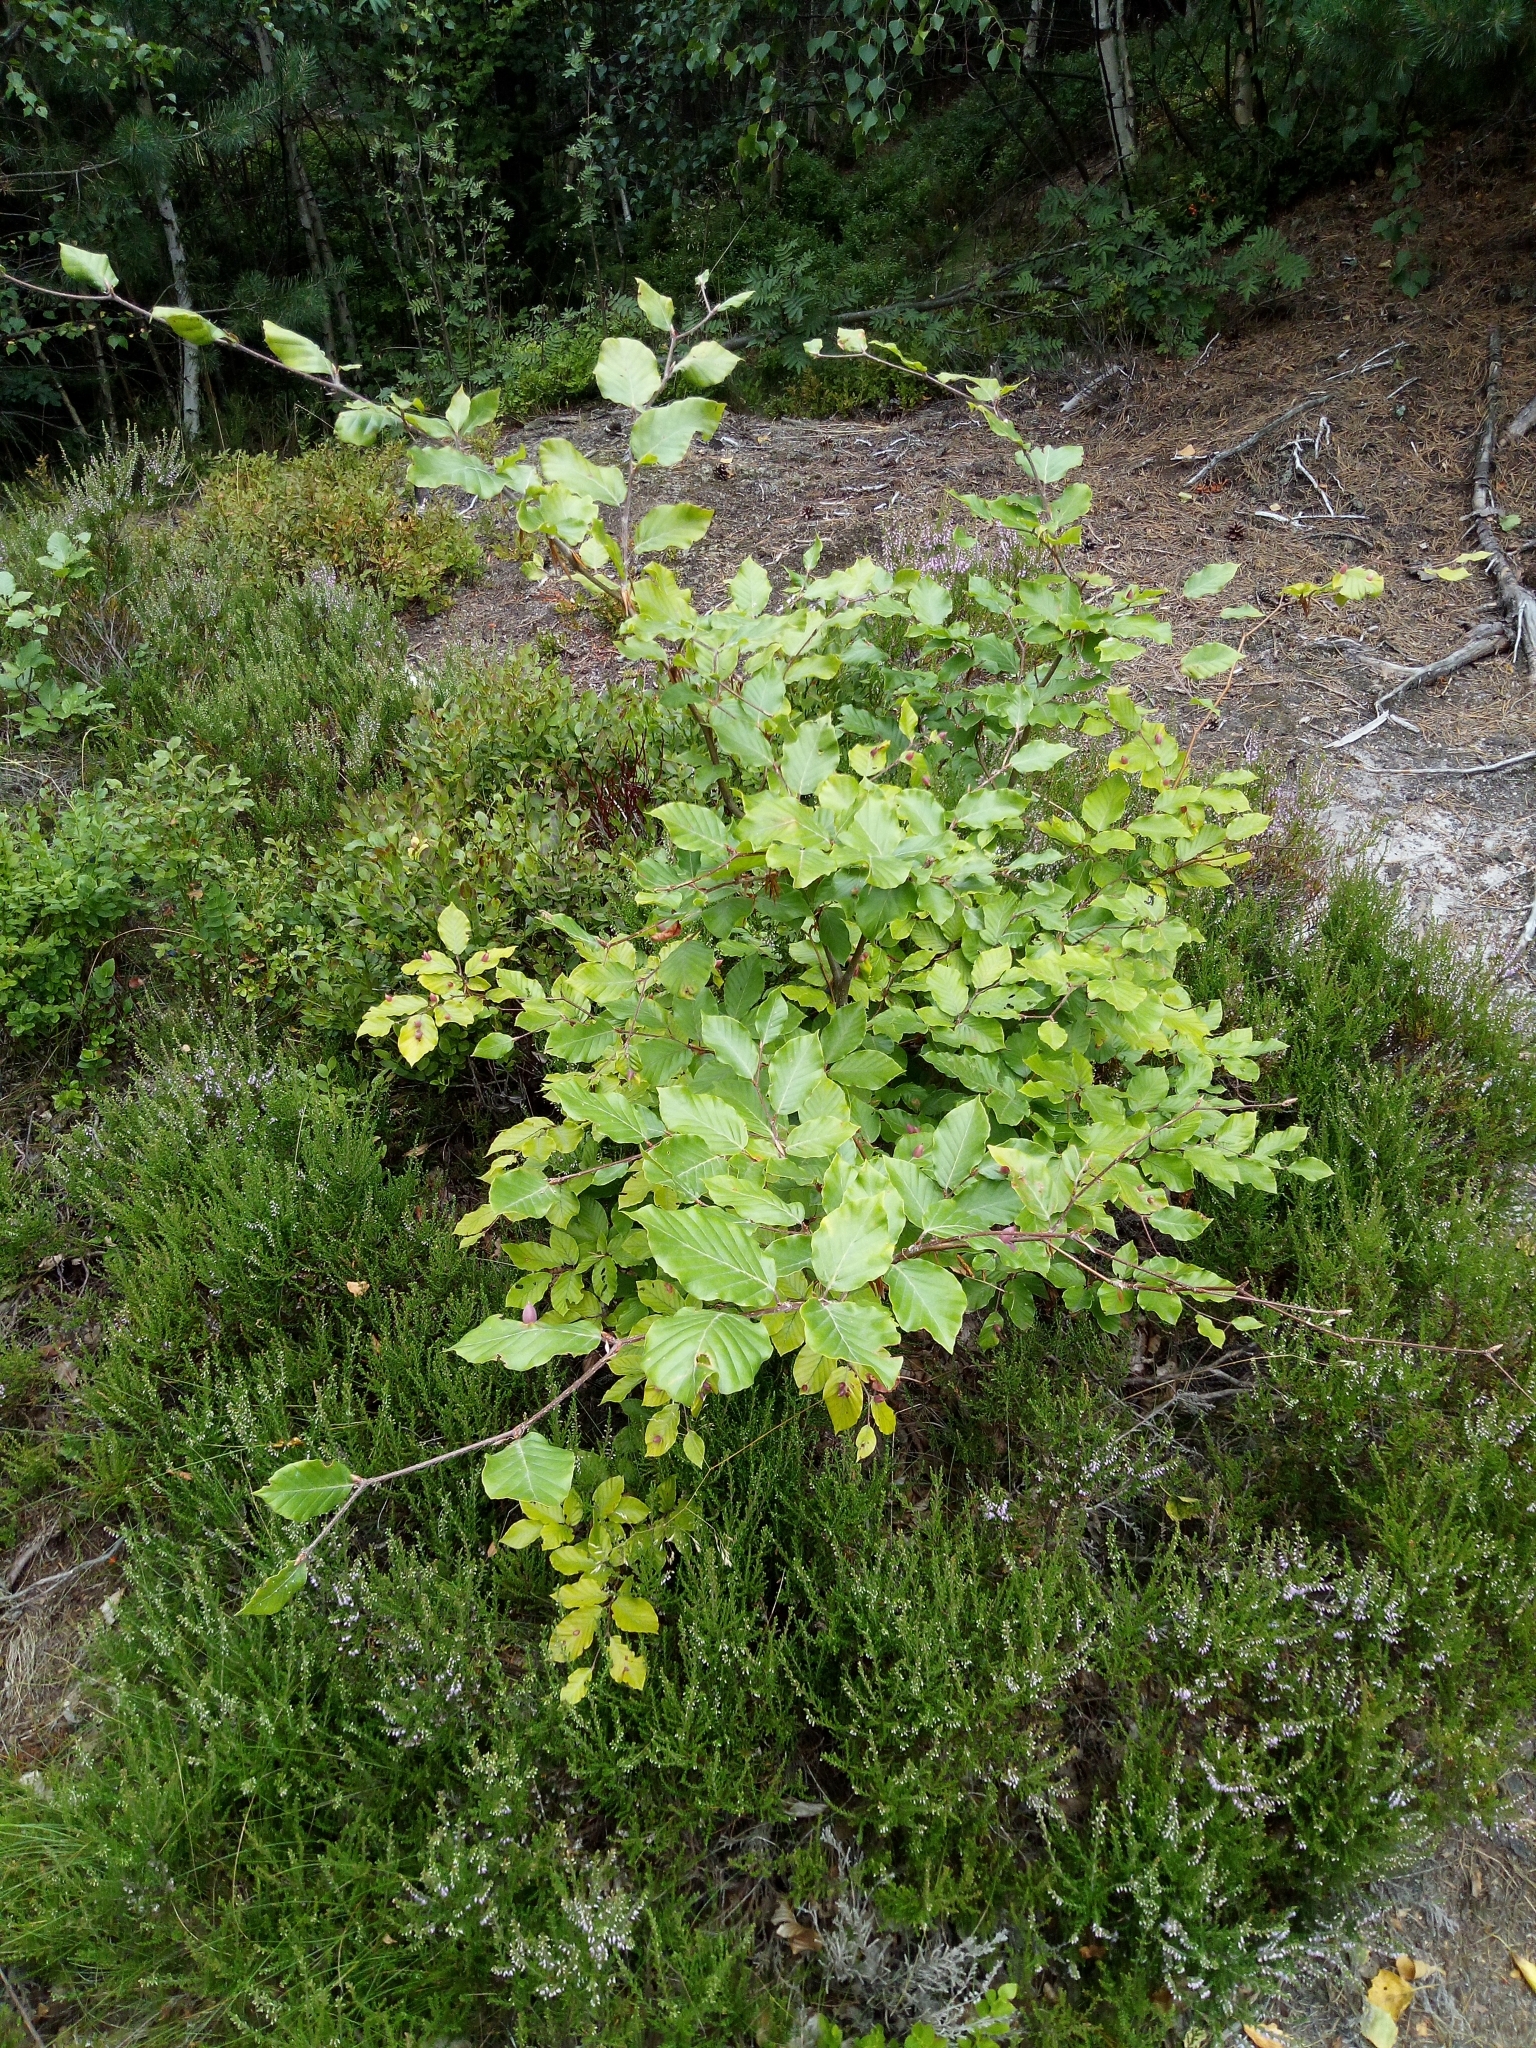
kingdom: Plantae
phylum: Tracheophyta
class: Magnoliopsida
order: Fagales
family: Fagaceae
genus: Fagus
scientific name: Fagus sylvatica
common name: Beech
